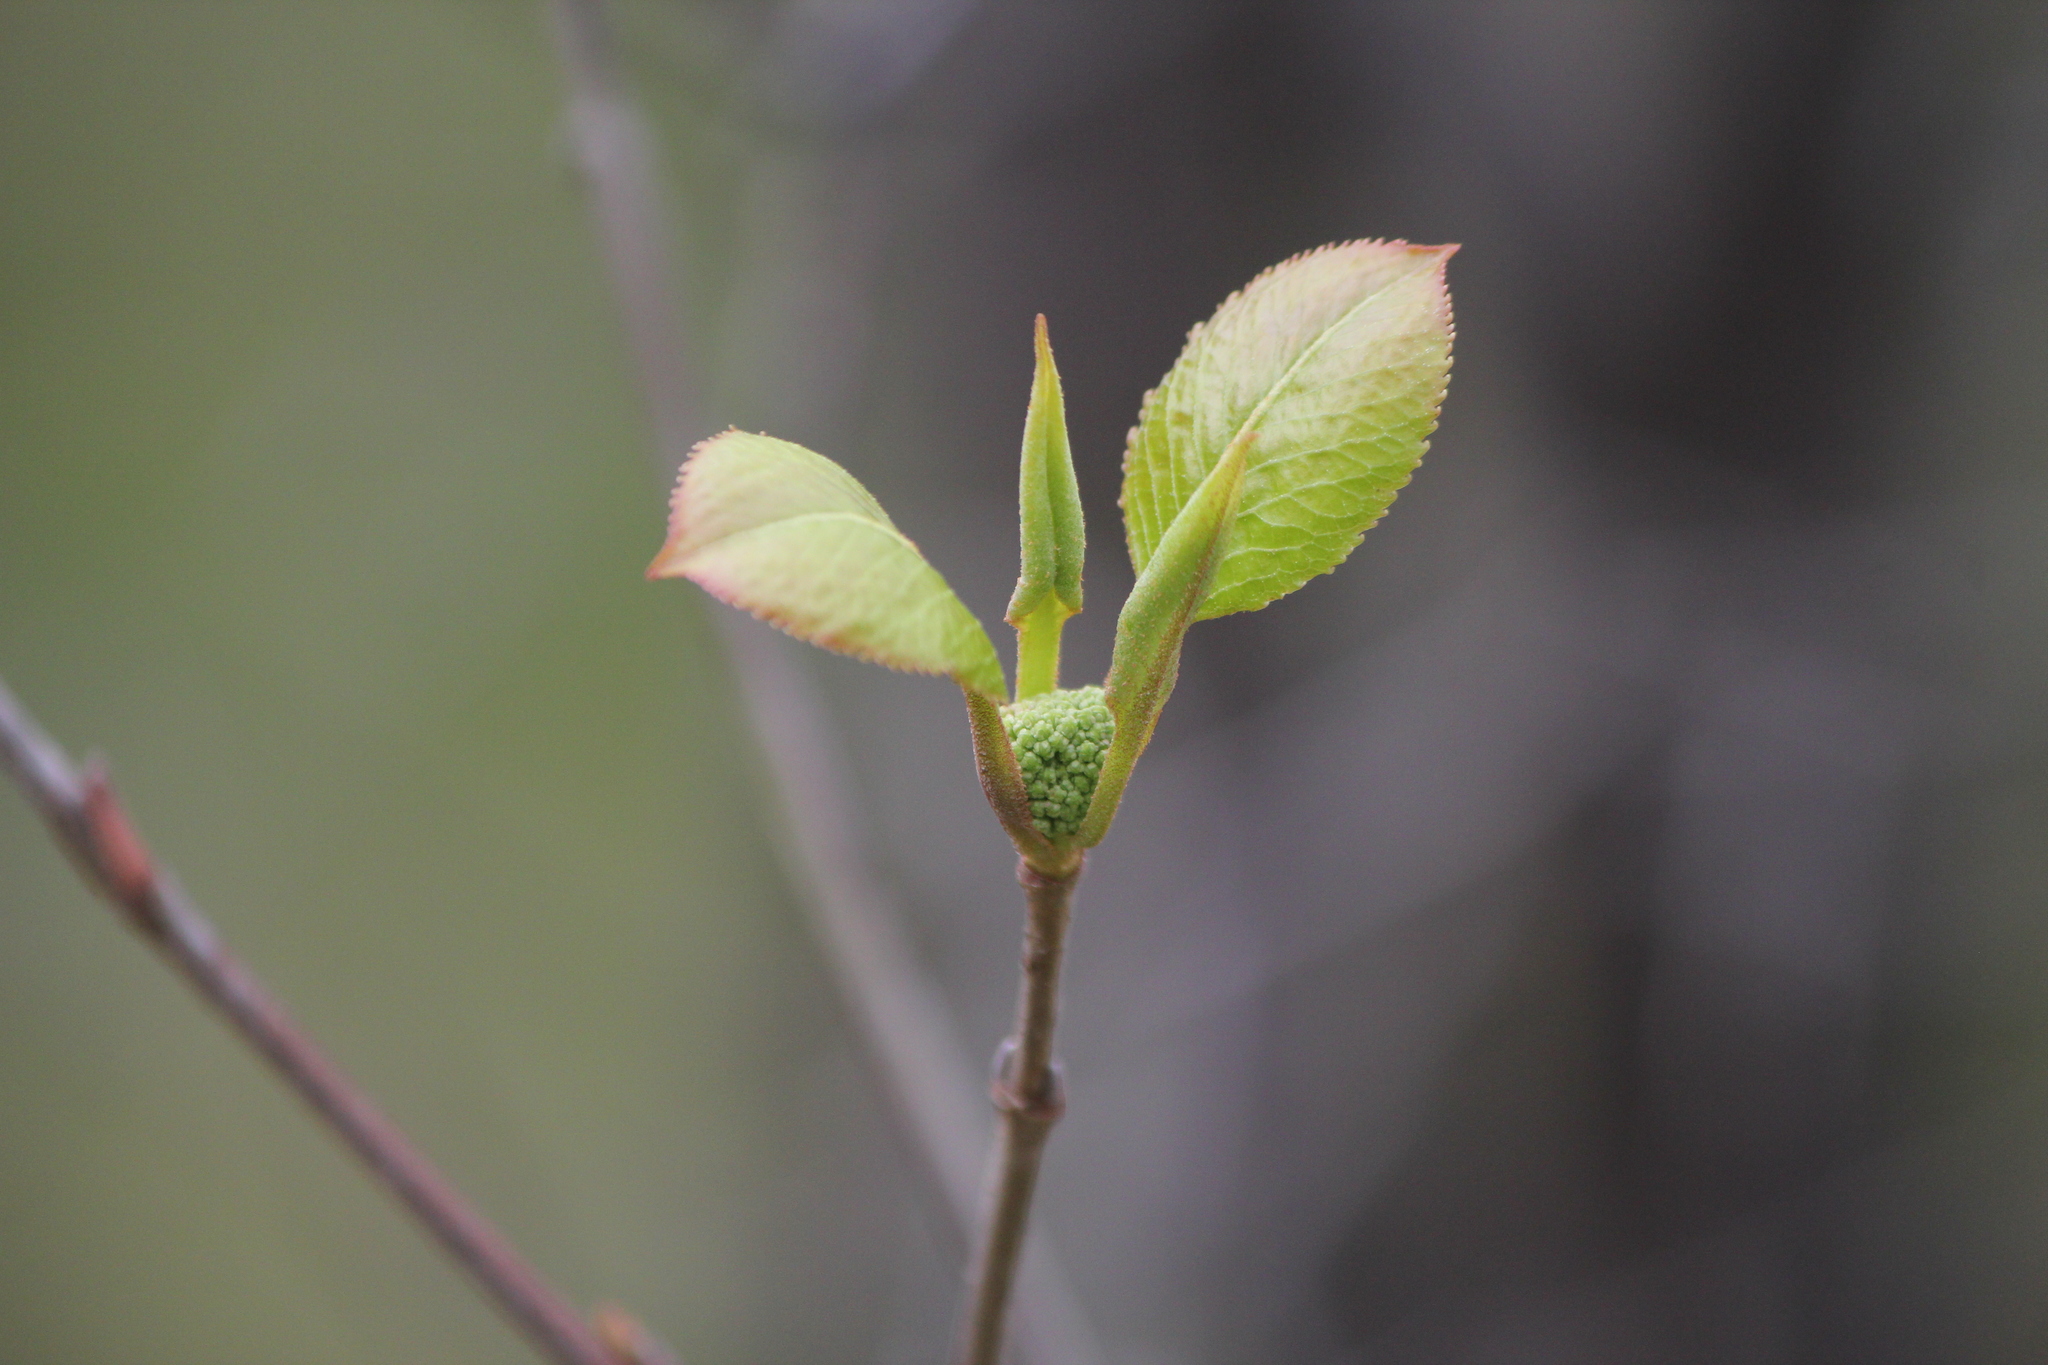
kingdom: Plantae
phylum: Tracheophyta
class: Magnoliopsida
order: Dipsacales
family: Viburnaceae
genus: Viburnum
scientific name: Viburnum lentago
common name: Black haw
